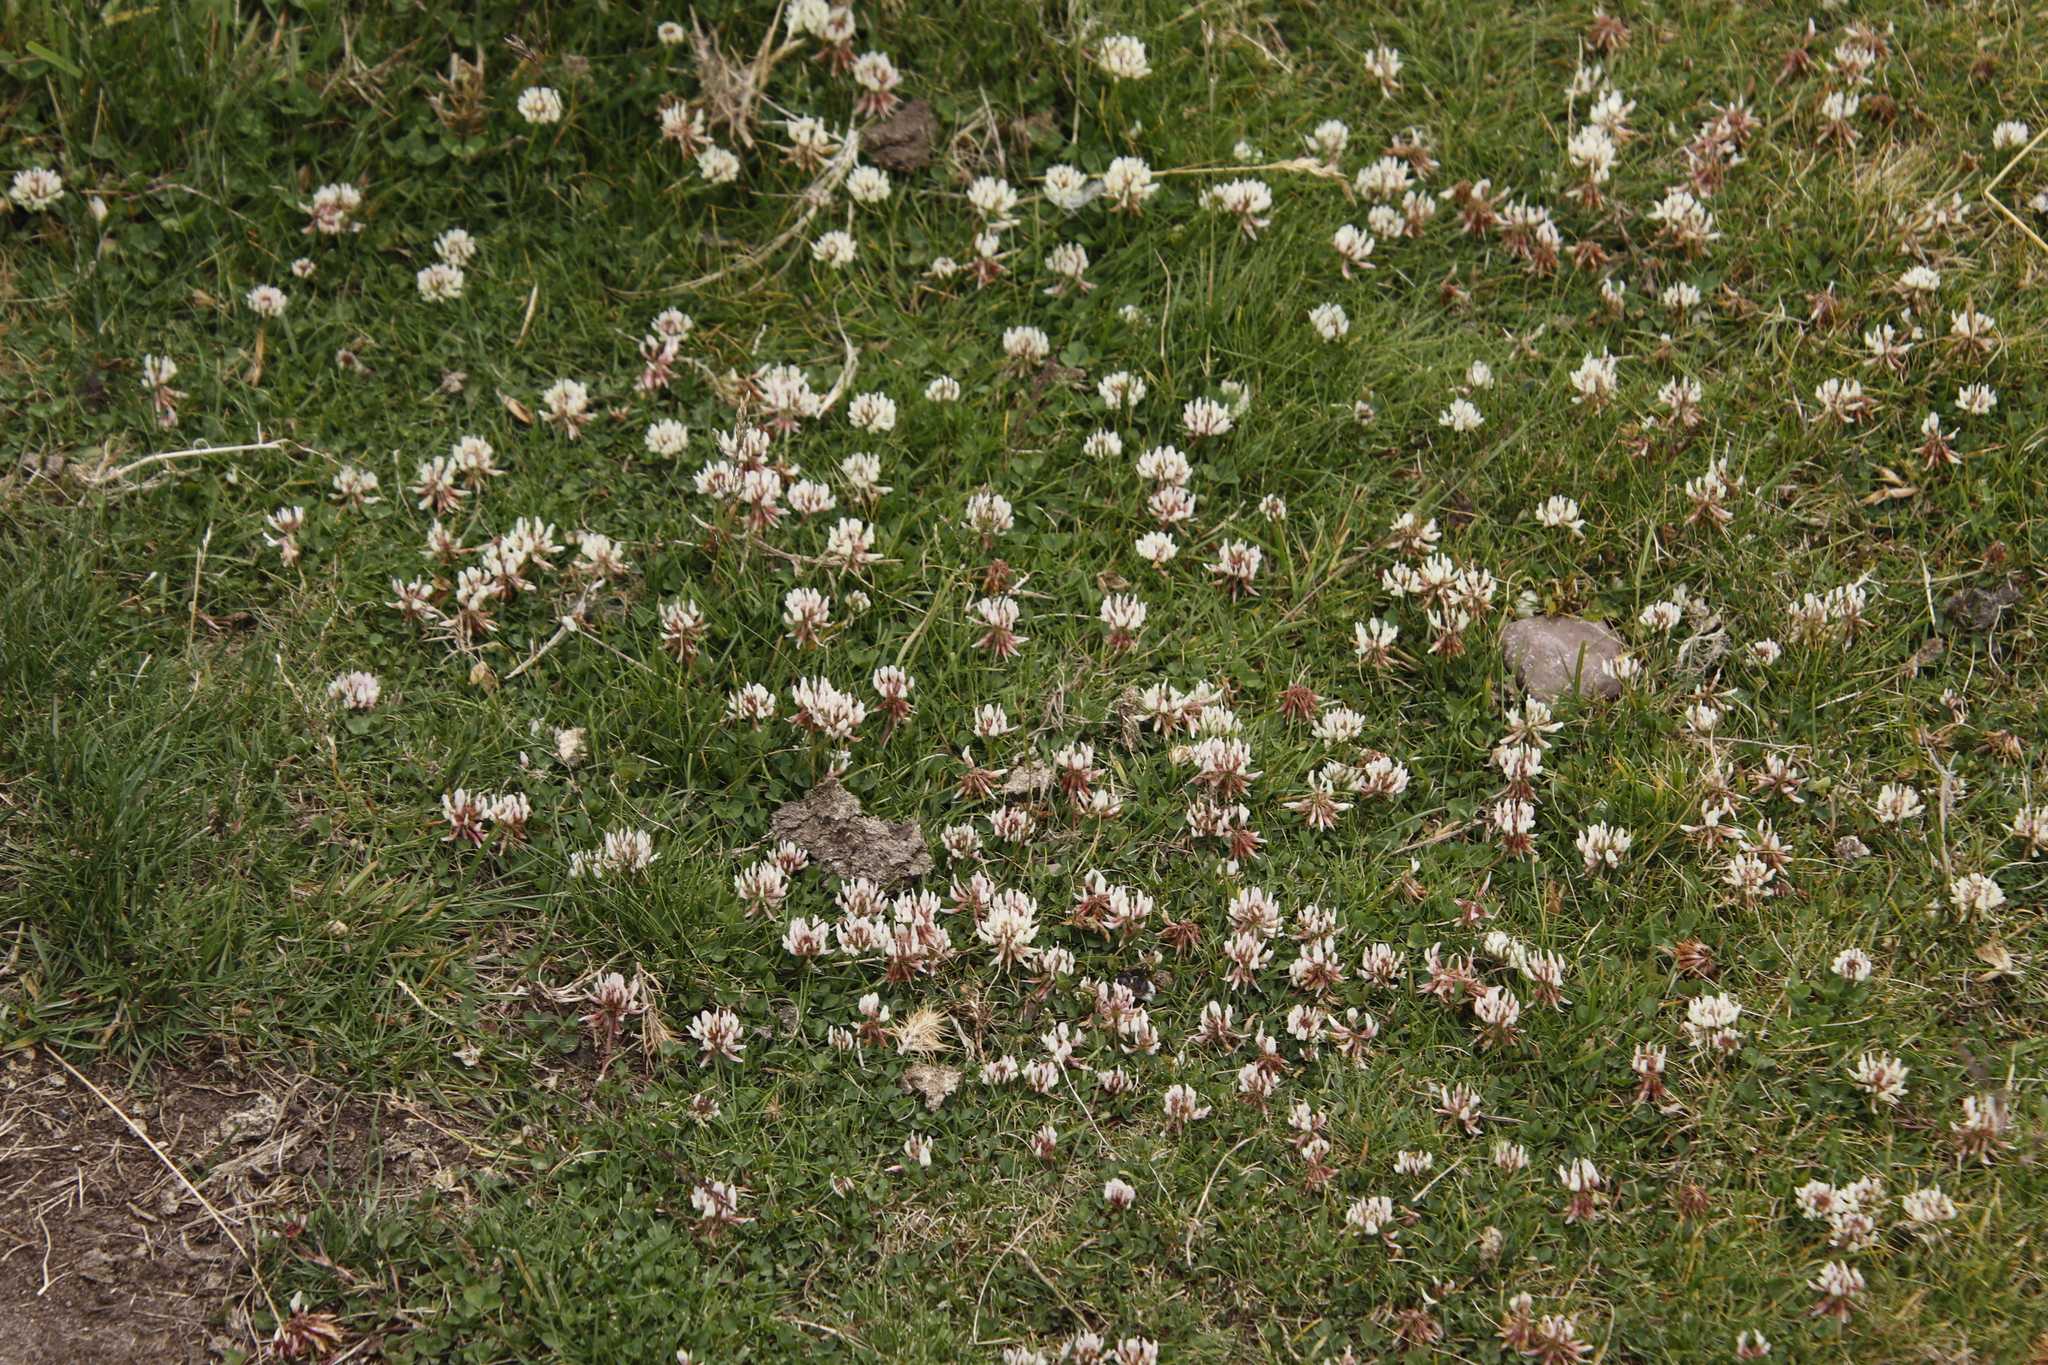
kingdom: Plantae
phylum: Tracheophyta
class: Magnoliopsida
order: Fabales
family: Fabaceae
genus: Trifolium
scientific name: Trifolium repens
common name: White clover
